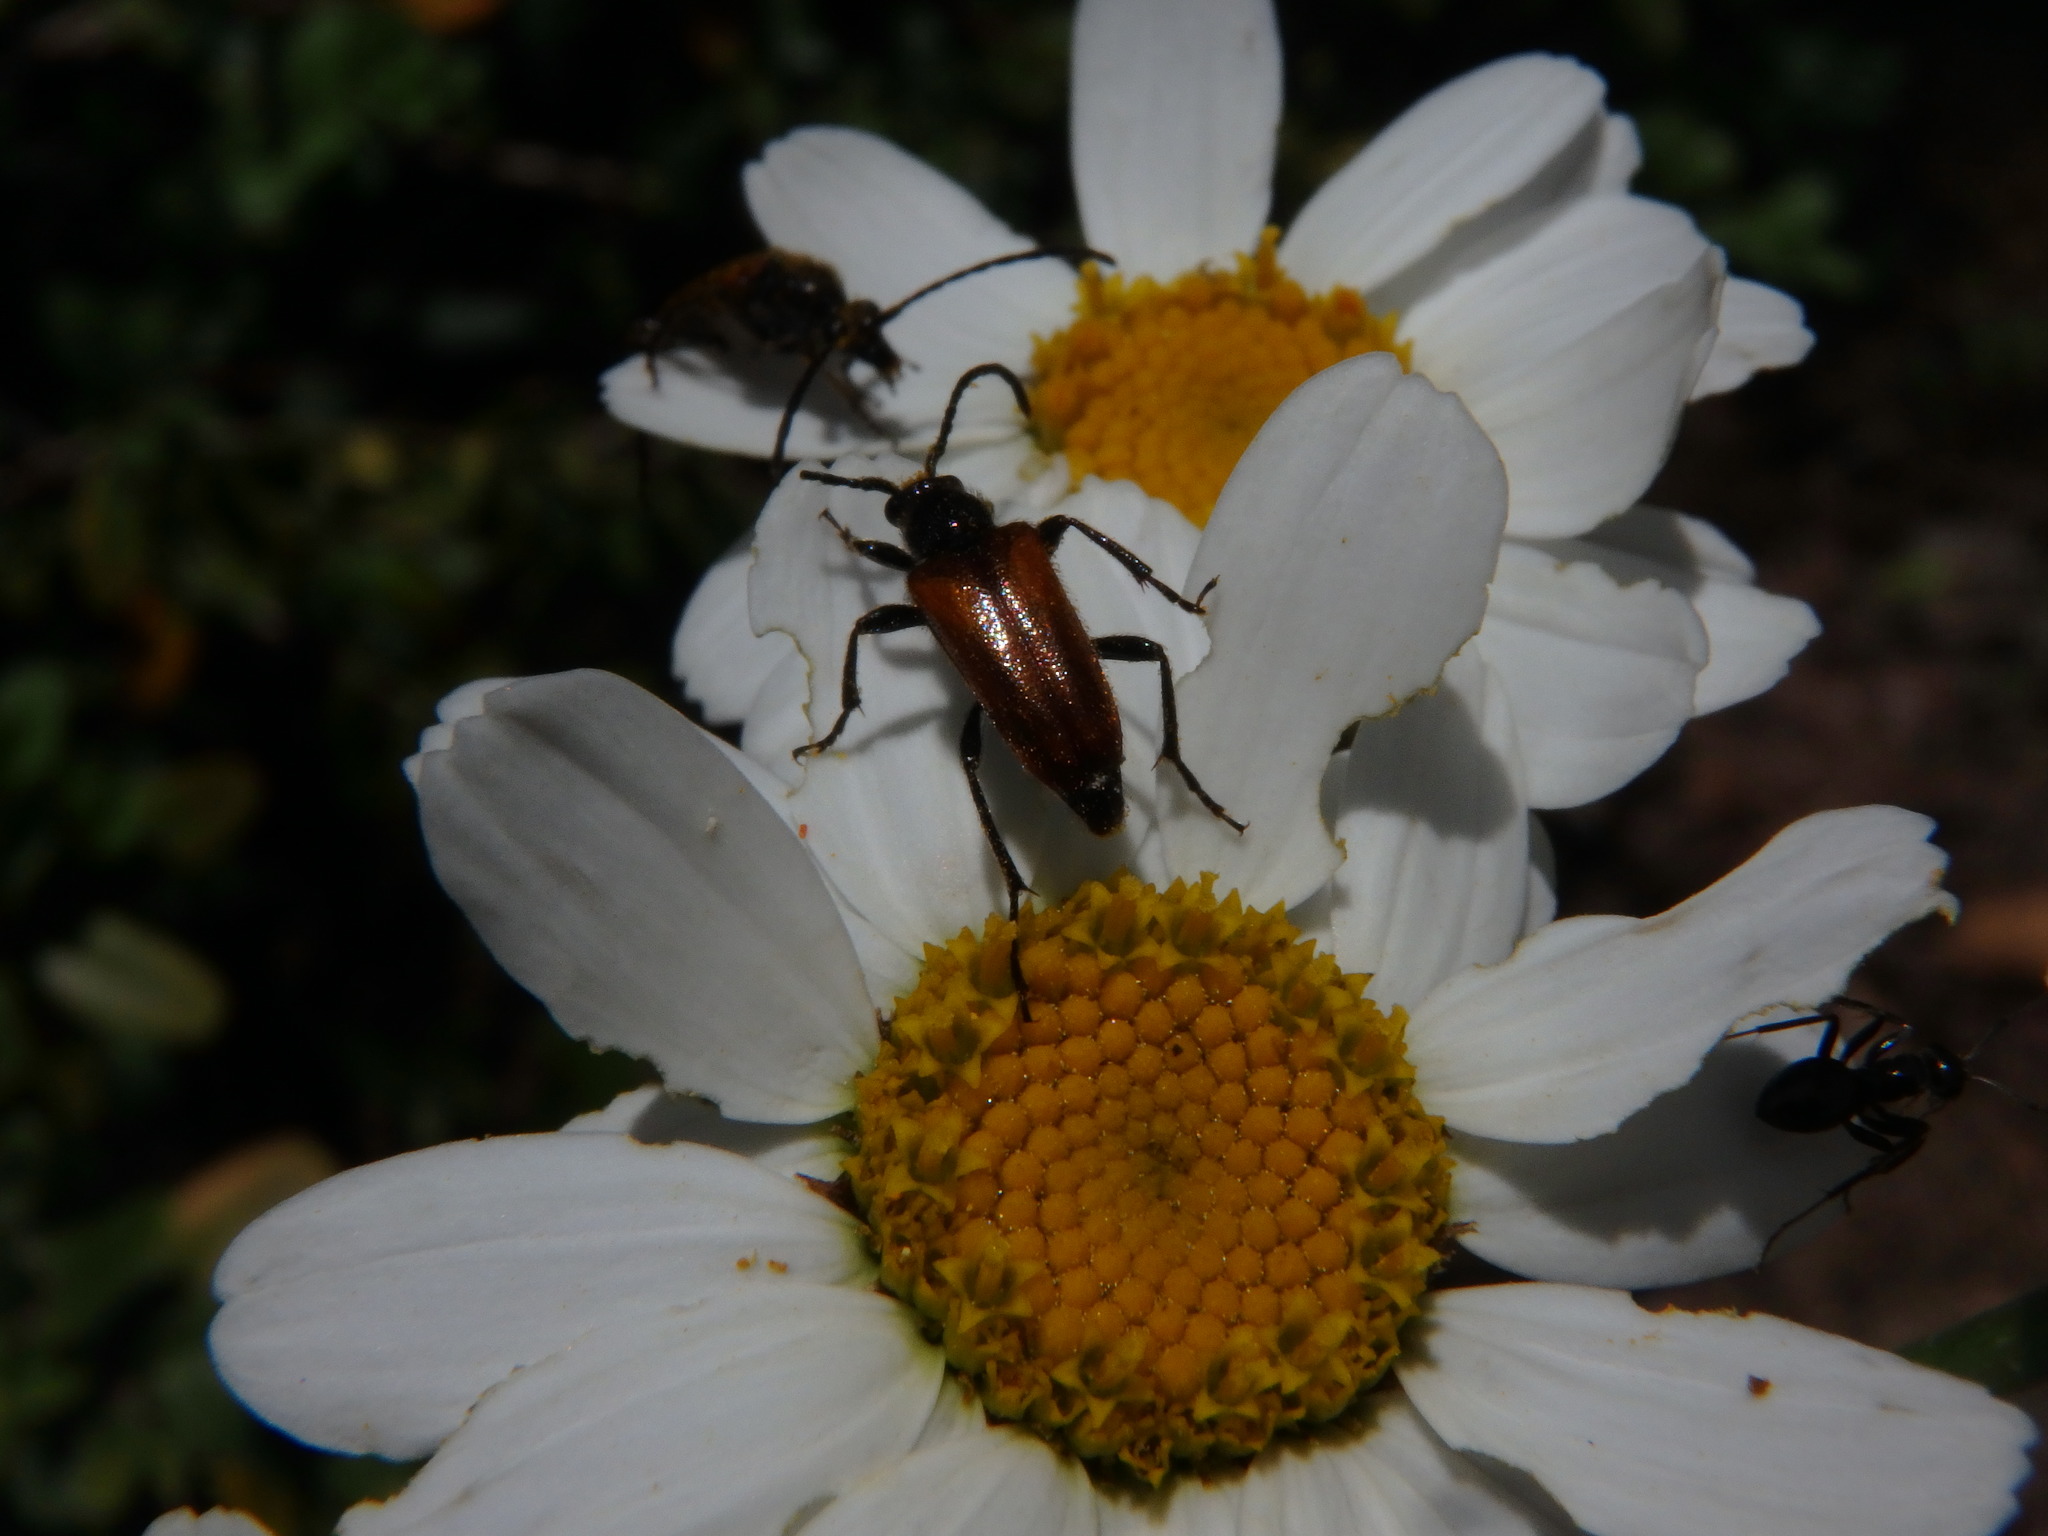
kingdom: Animalia
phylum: Arthropoda
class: Insecta
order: Coleoptera
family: Cerambycidae
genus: Pseudovadonia
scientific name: Pseudovadonia livida
